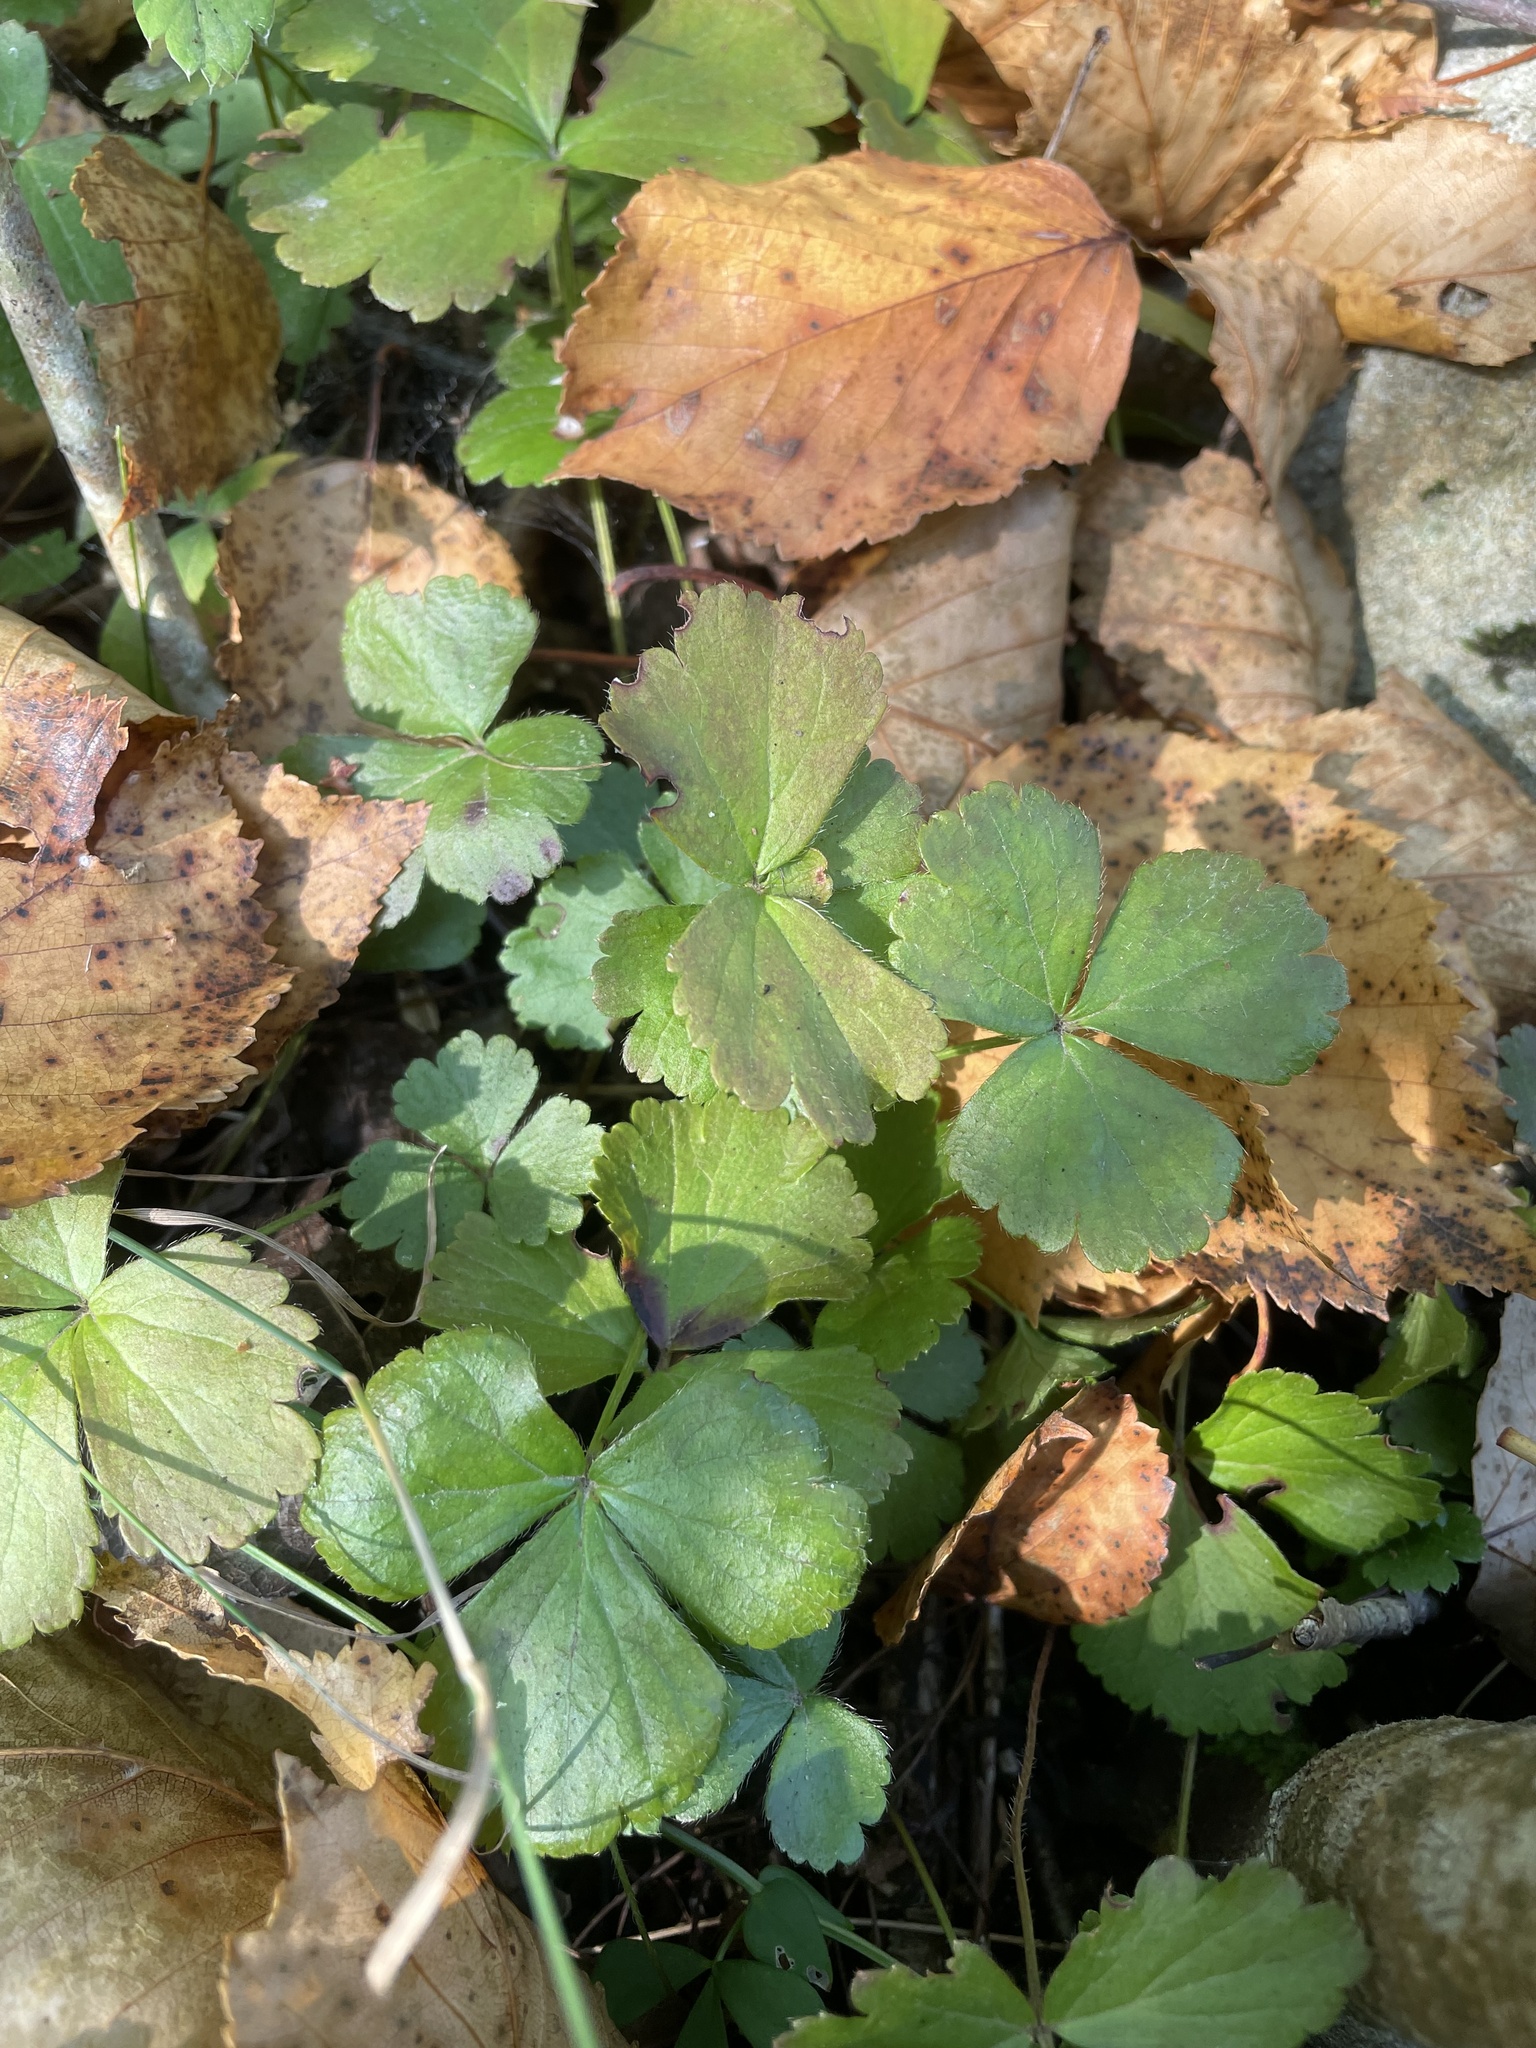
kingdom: Plantae
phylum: Tracheophyta
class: Magnoliopsida
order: Rosales
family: Rosaceae
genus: Geum
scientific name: Geum fragarioides
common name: Appalachian barren strawberry
